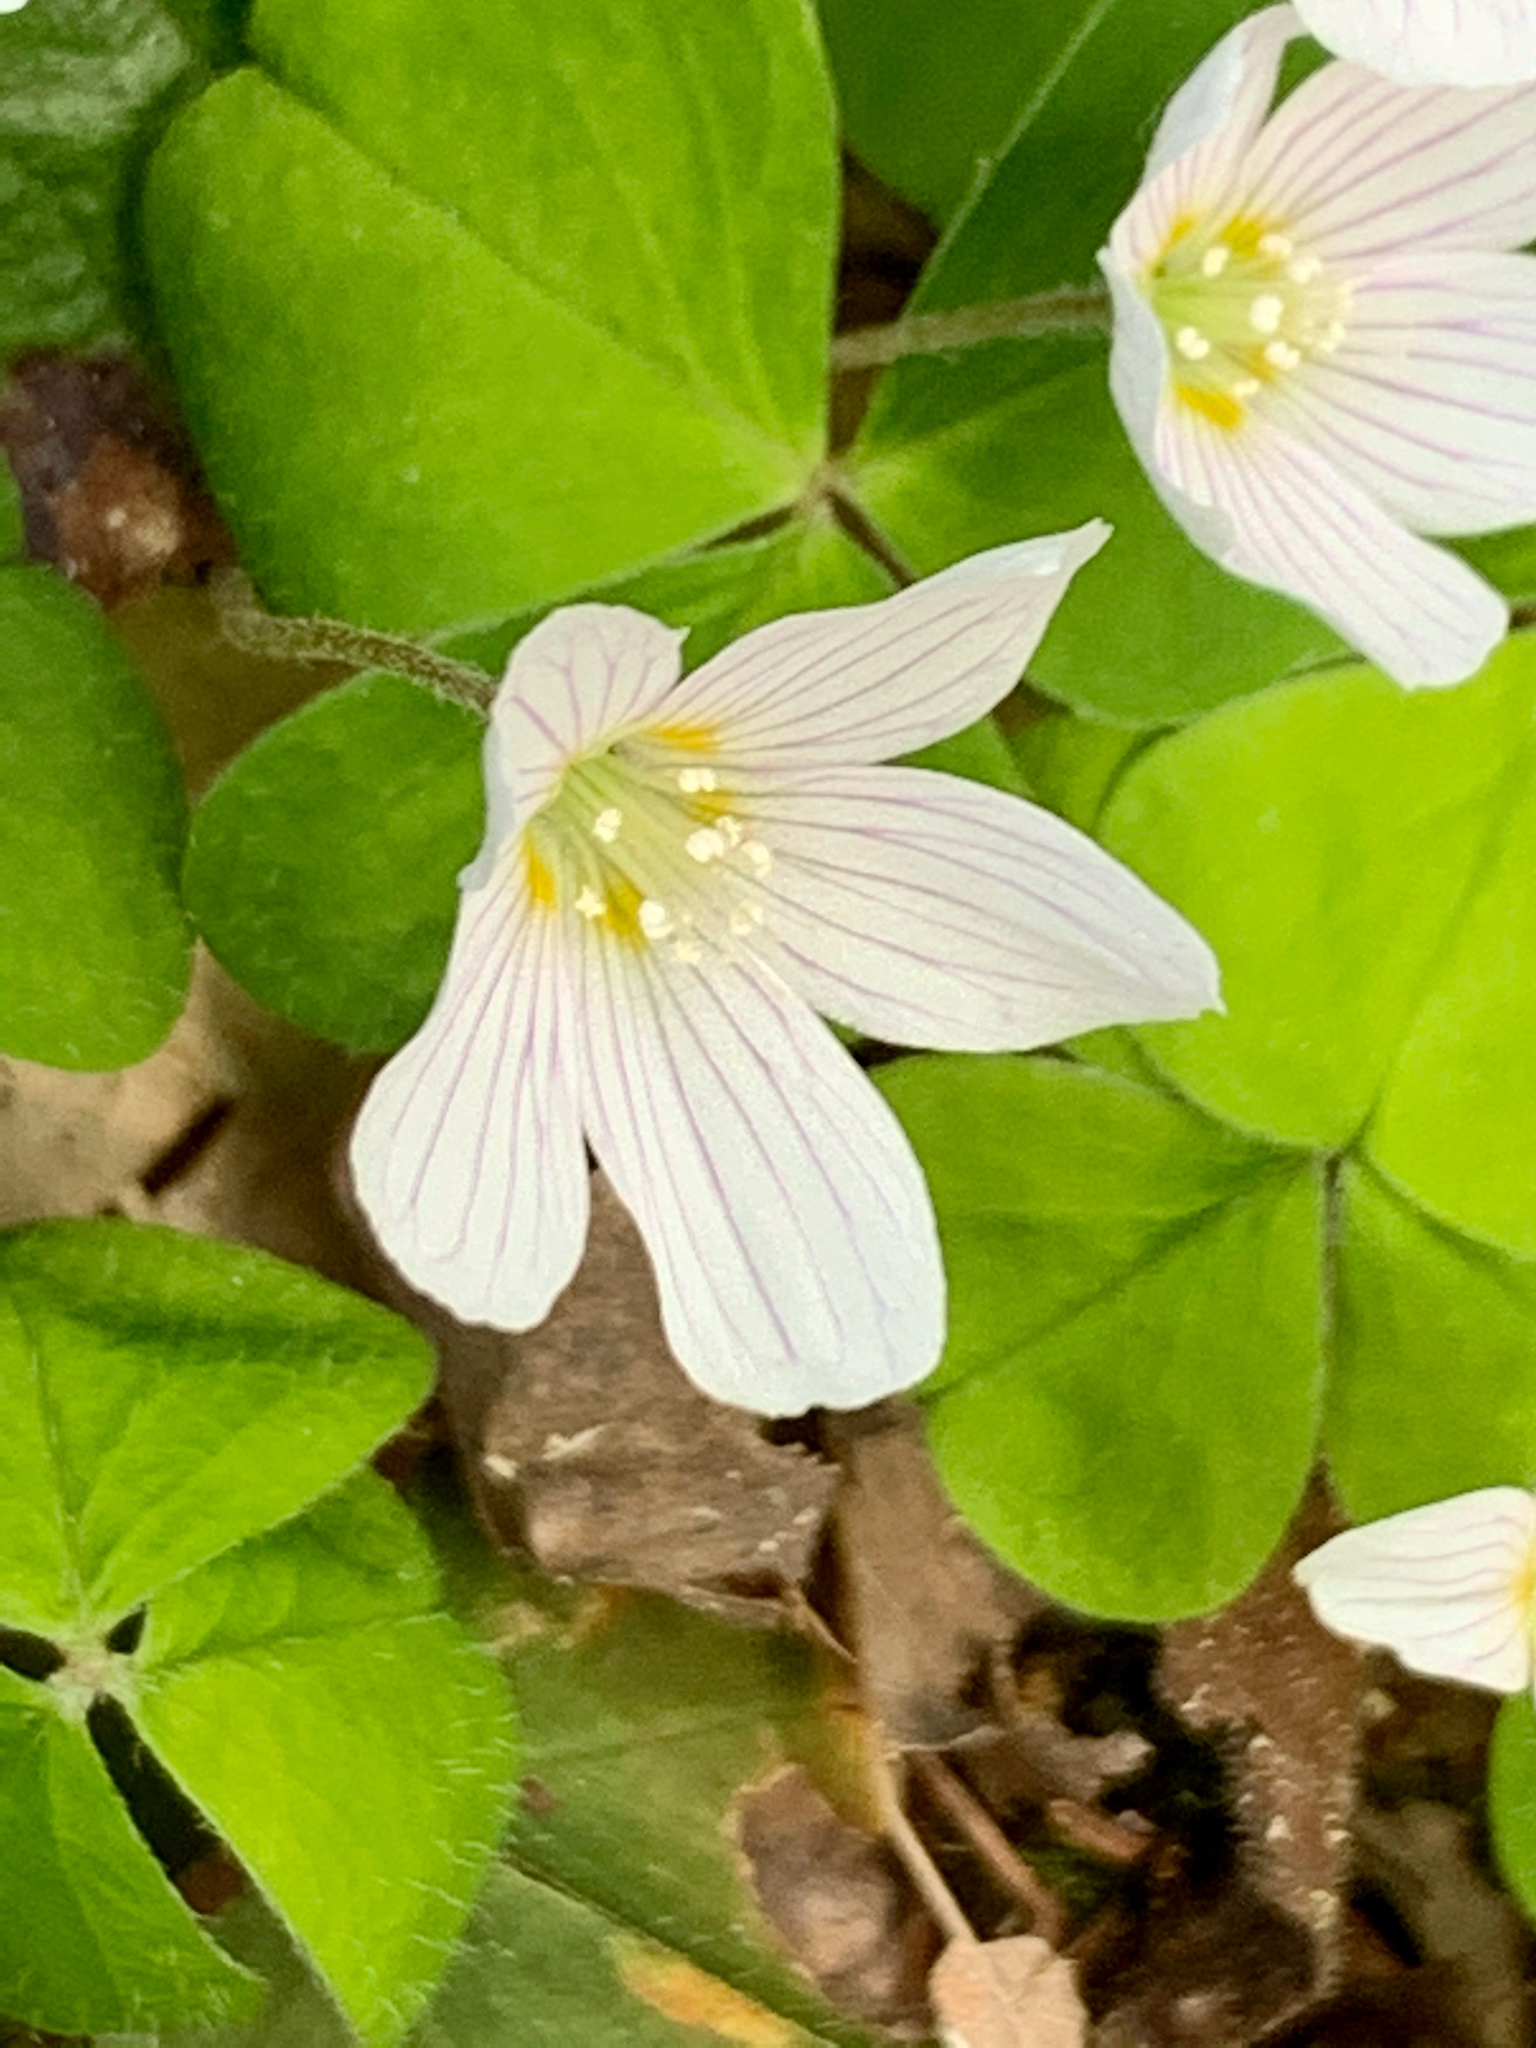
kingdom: Plantae
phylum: Tracheophyta
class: Magnoliopsida
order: Oxalidales
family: Oxalidaceae
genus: Oxalis
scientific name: Oxalis acetosella
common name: Wood-sorrel
